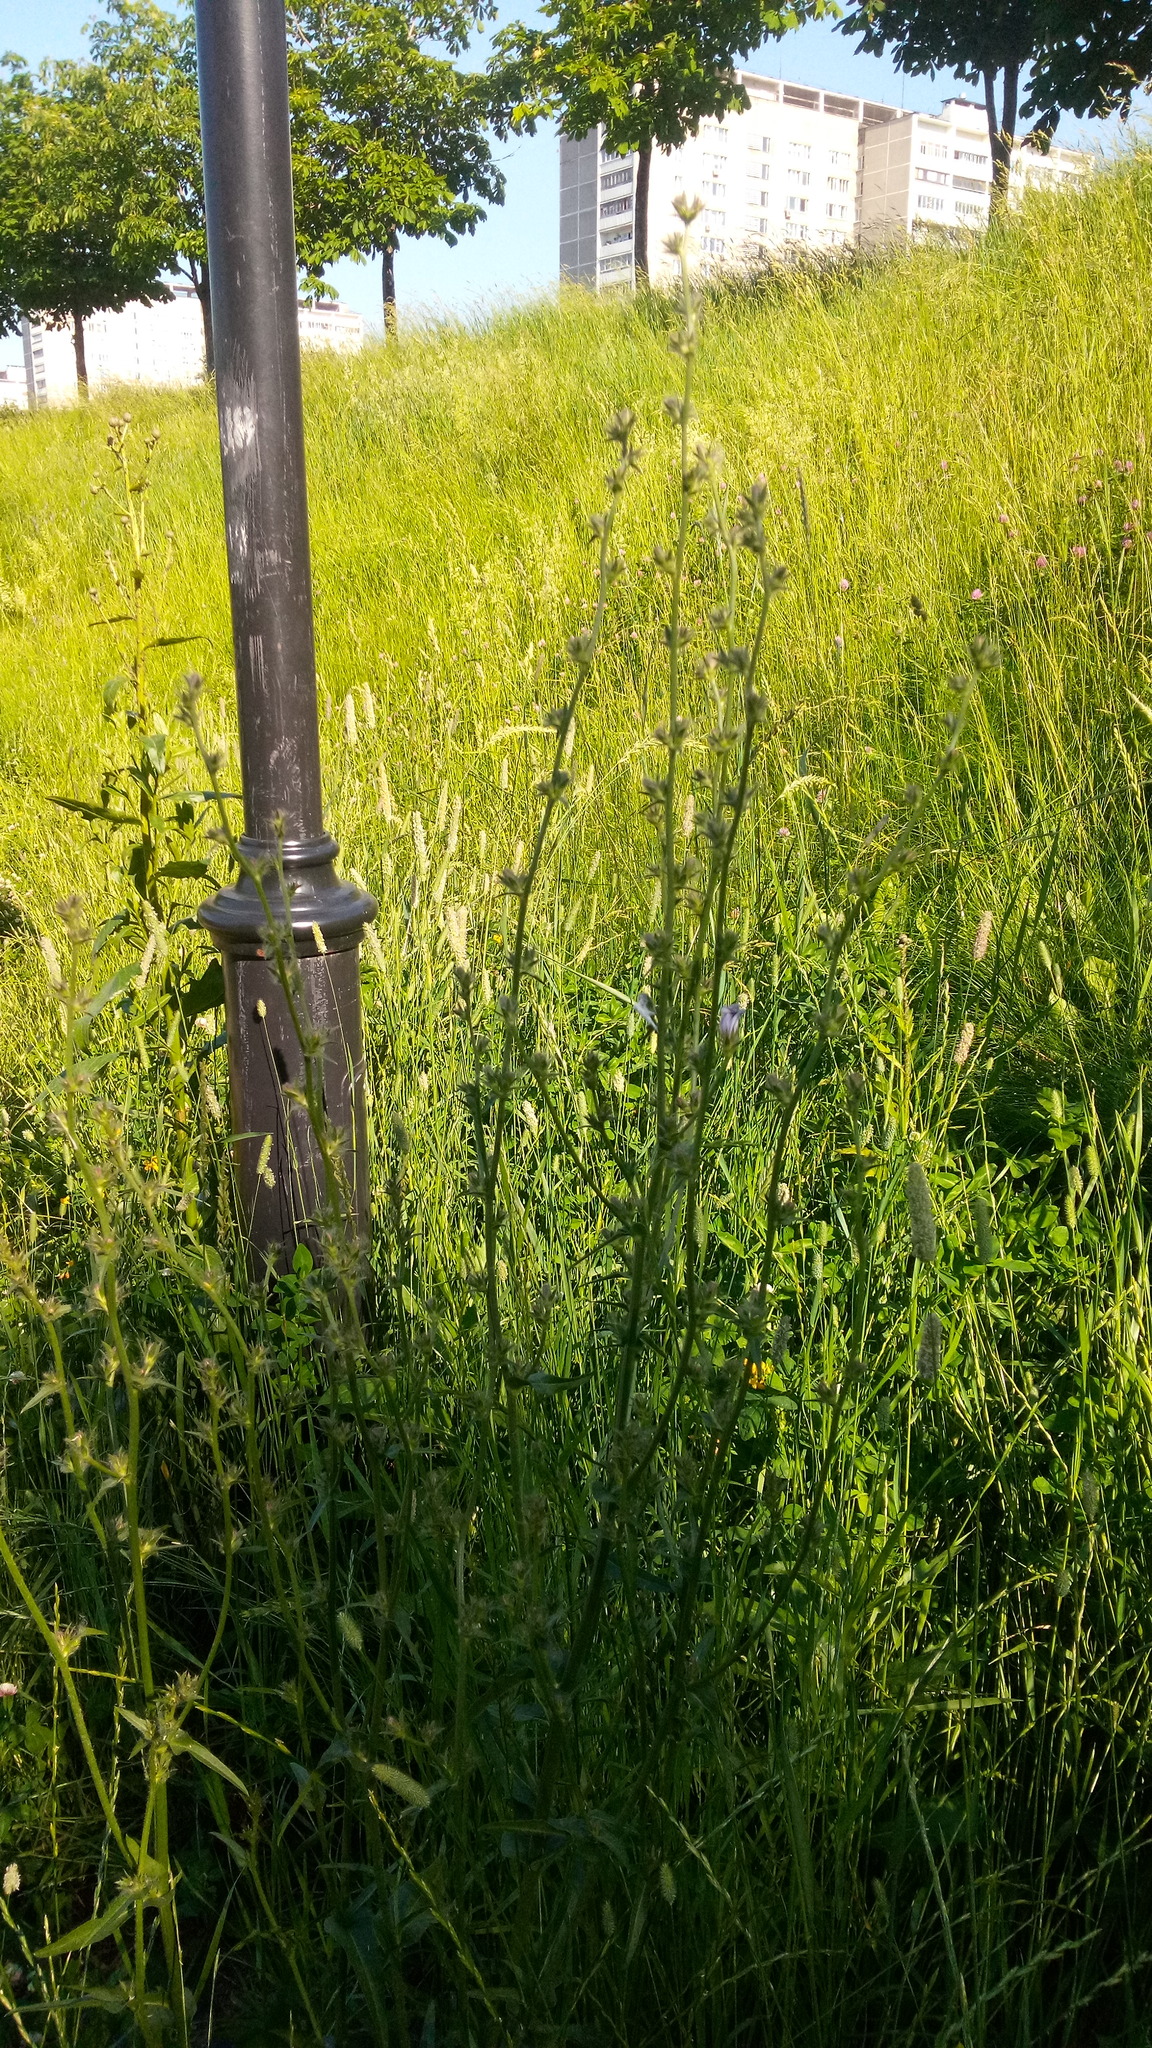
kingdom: Plantae
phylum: Tracheophyta
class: Magnoliopsida
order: Asterales
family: Asteraceae
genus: Cichorium
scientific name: Cichorium intybus
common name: Chicory
